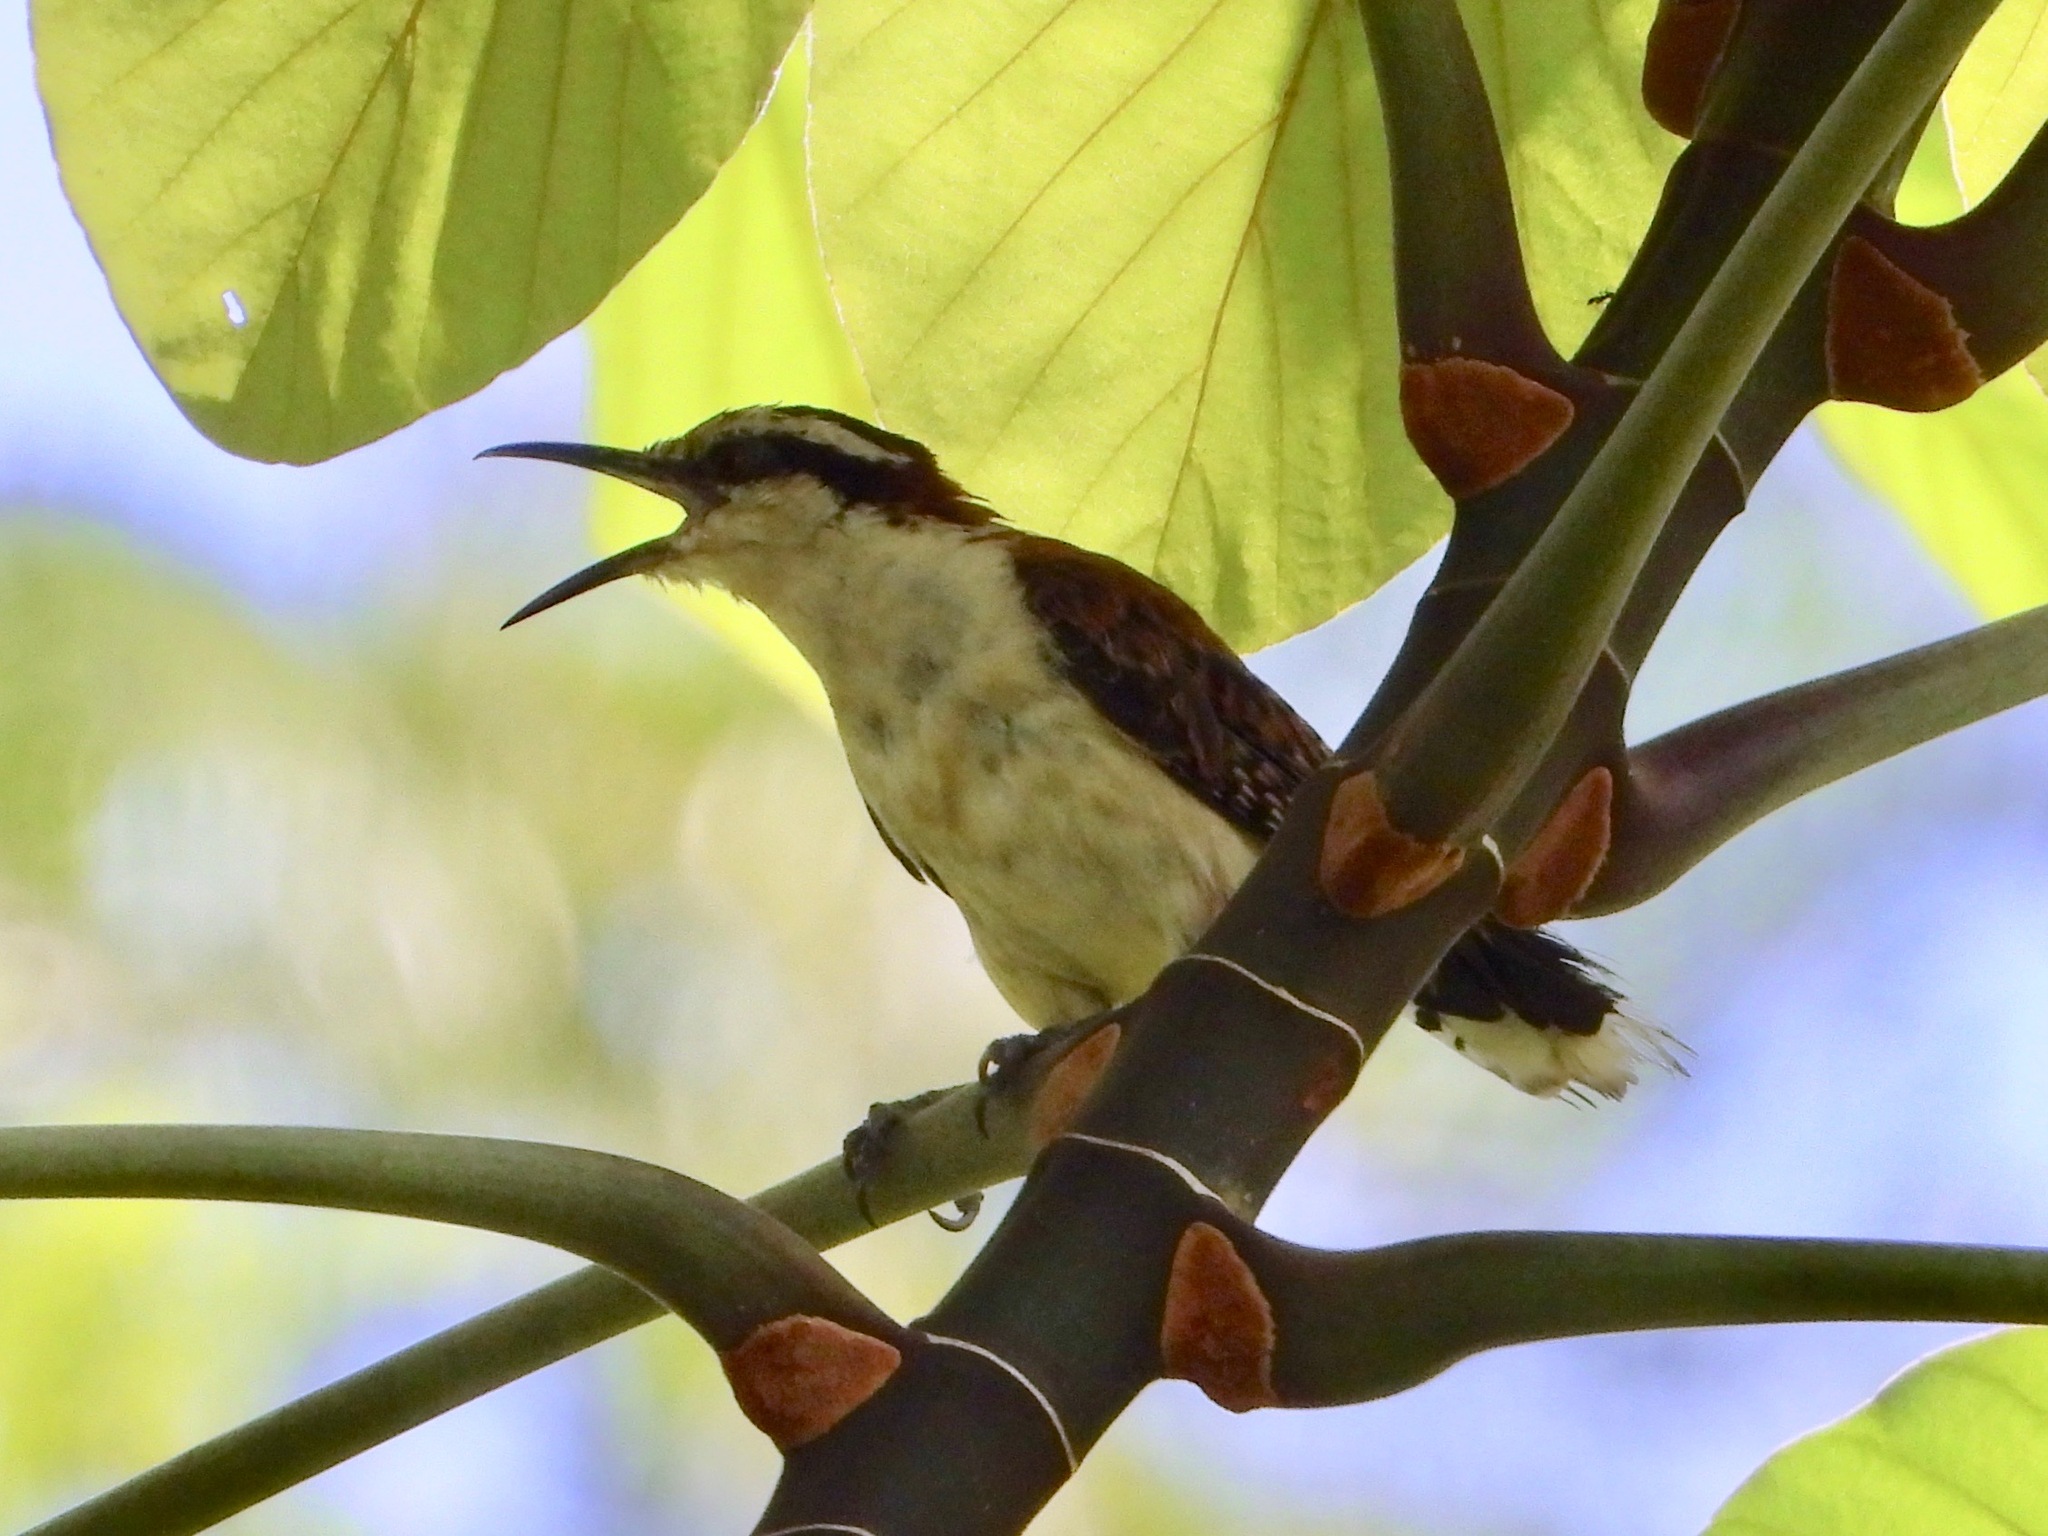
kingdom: Animalia
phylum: Chordata
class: Aves
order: Passeriformes
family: Troglodytidae
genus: Campylorhynchus
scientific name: Campylorhynchus rufinucha
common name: Rufous-naped wren
